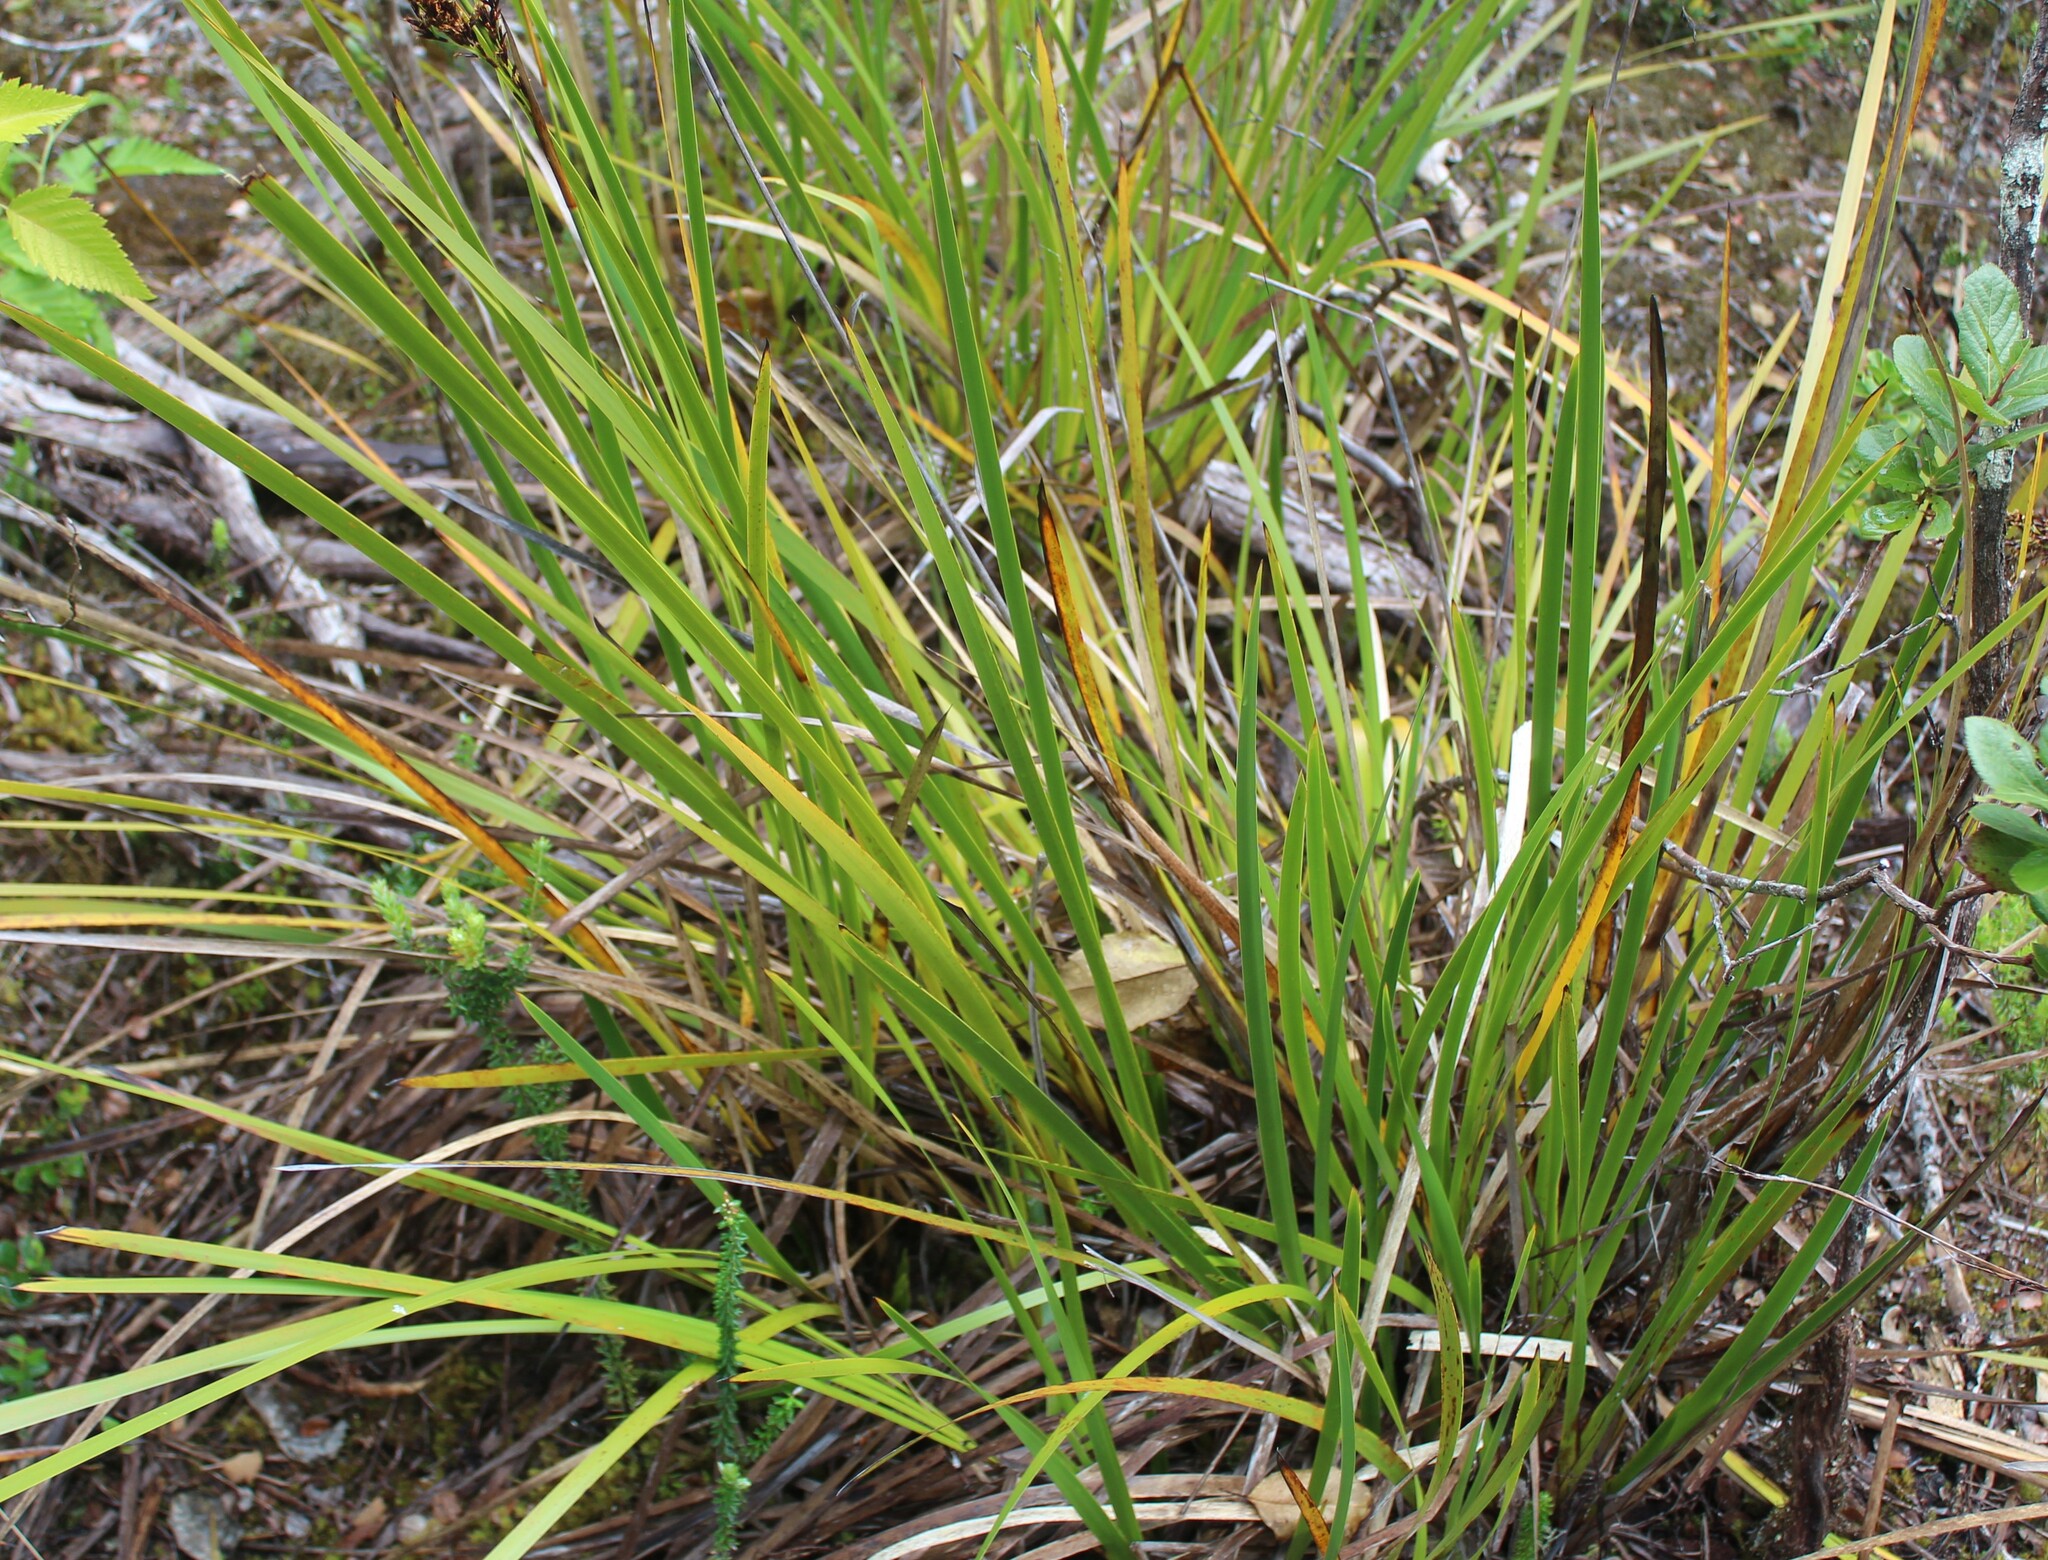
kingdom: Plantae
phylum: Tracheophyta
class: Liliopsida
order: Poales
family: Cyperaceae
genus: Machaerina
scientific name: Machaerina angustifolia
